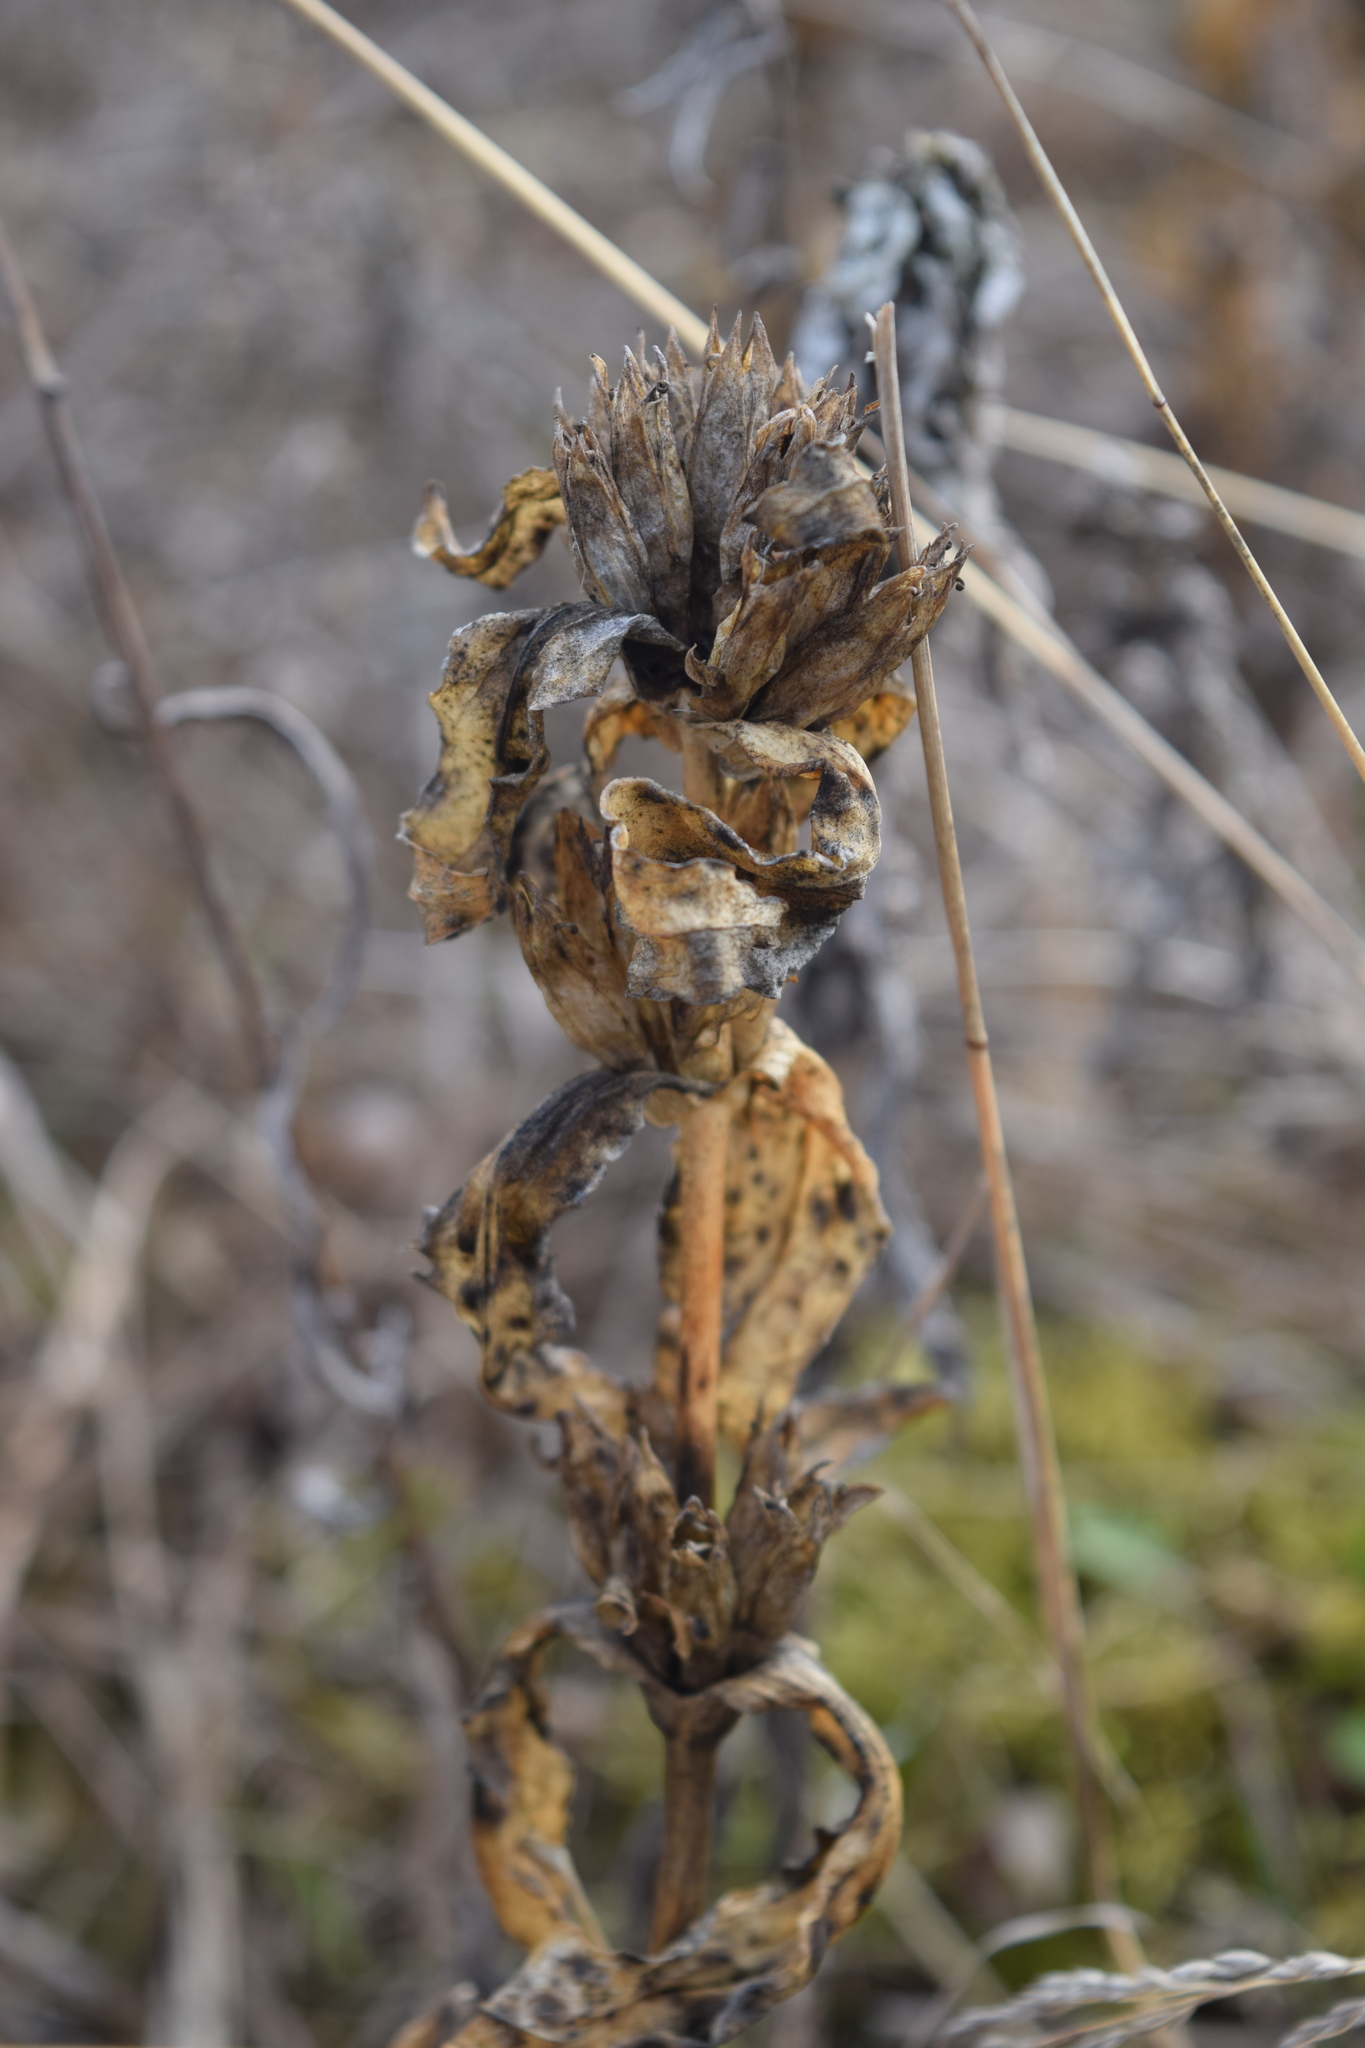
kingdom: Plantae
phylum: Tracheophyta
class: Magnoliopsida
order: Asterales
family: Campanulaceae
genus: Campanula
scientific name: Campanula glomerata
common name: Clustered bellflower
